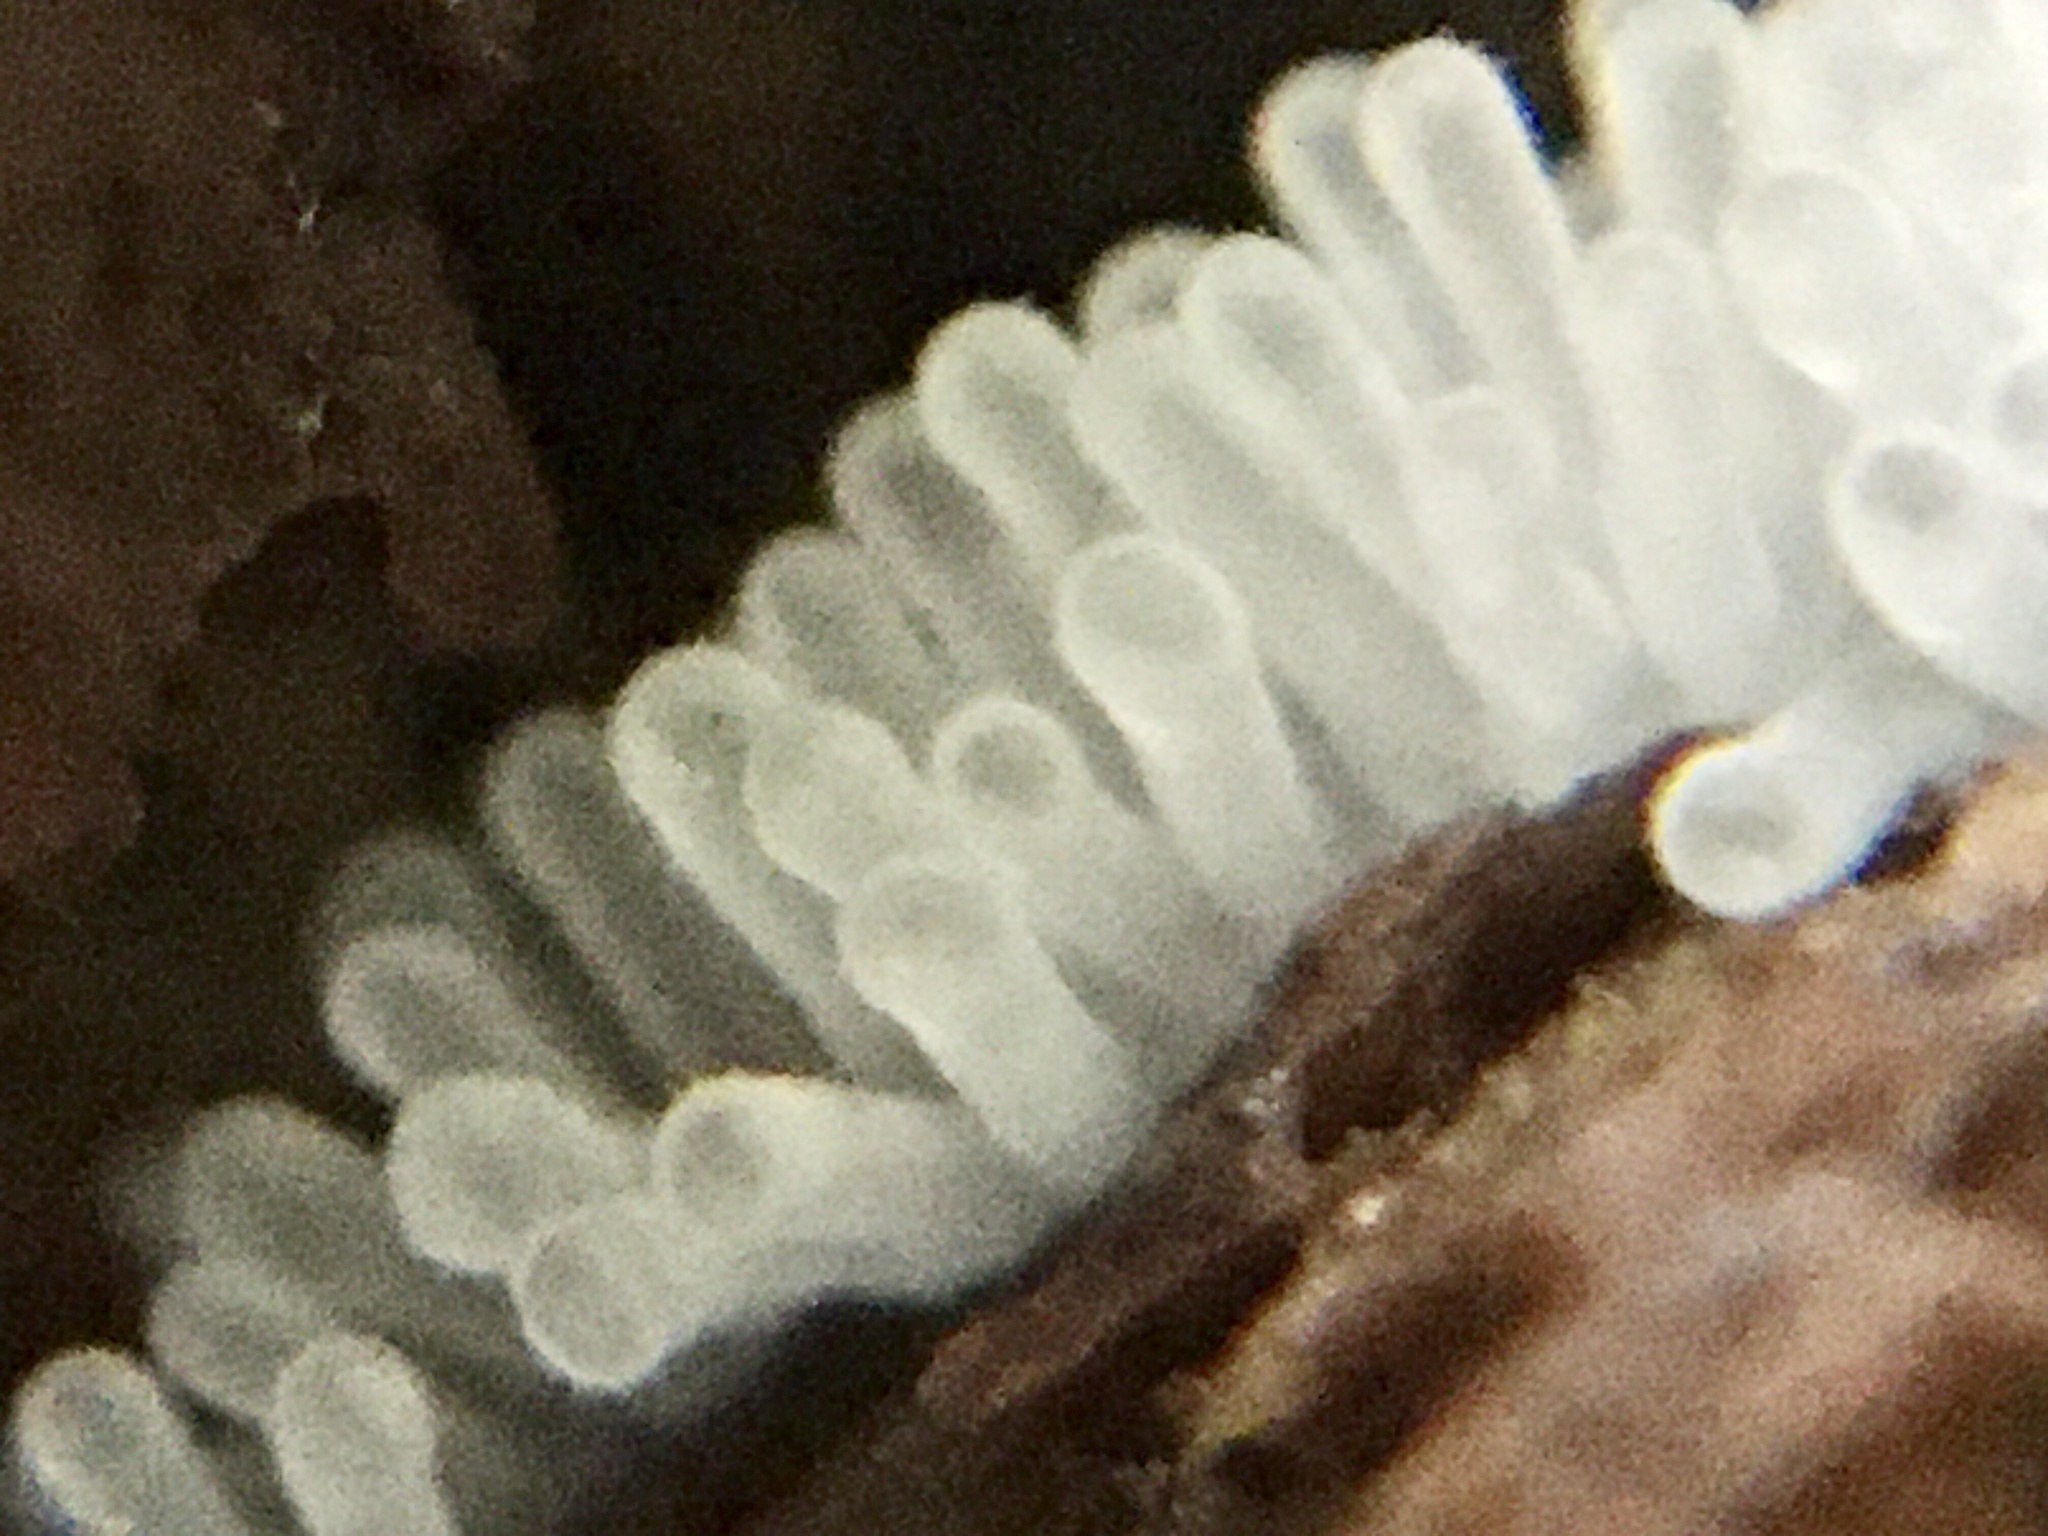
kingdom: Protozoa
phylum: Mycetozoa
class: Protosteliomycetes
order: Ceratiomyxales
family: Ceratiomyxaceae
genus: Ceratiomyxa
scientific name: Ceratiomyxa fruticulosa
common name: Honeycomb coral slime mold
